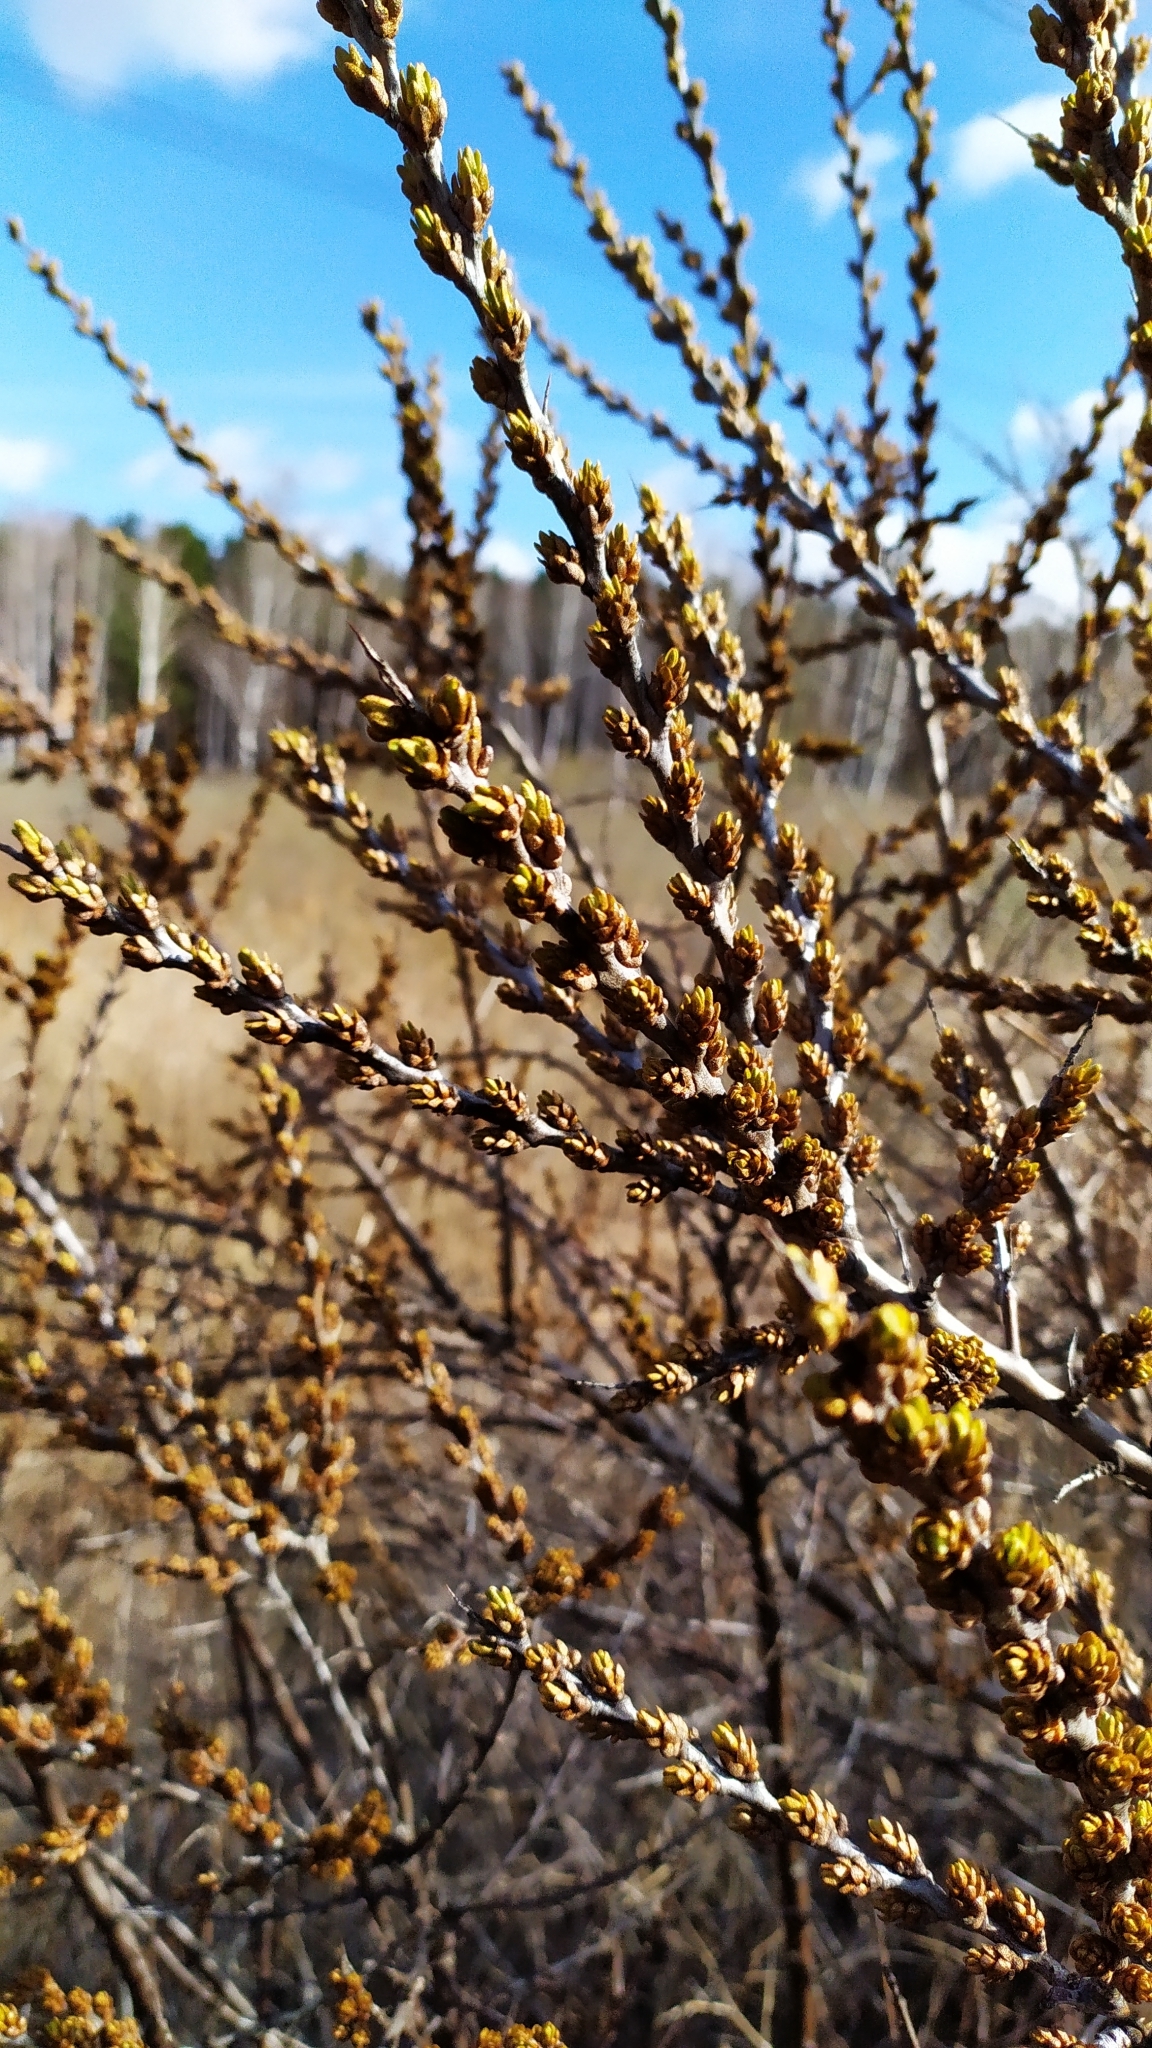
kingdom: Plantae
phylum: Tracheophyta
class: Magnoliopsida
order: Rosales
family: Elaeagnaceae
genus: Hippophae
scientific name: Hippophae rhamnoides
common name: Sea-buckthorn
